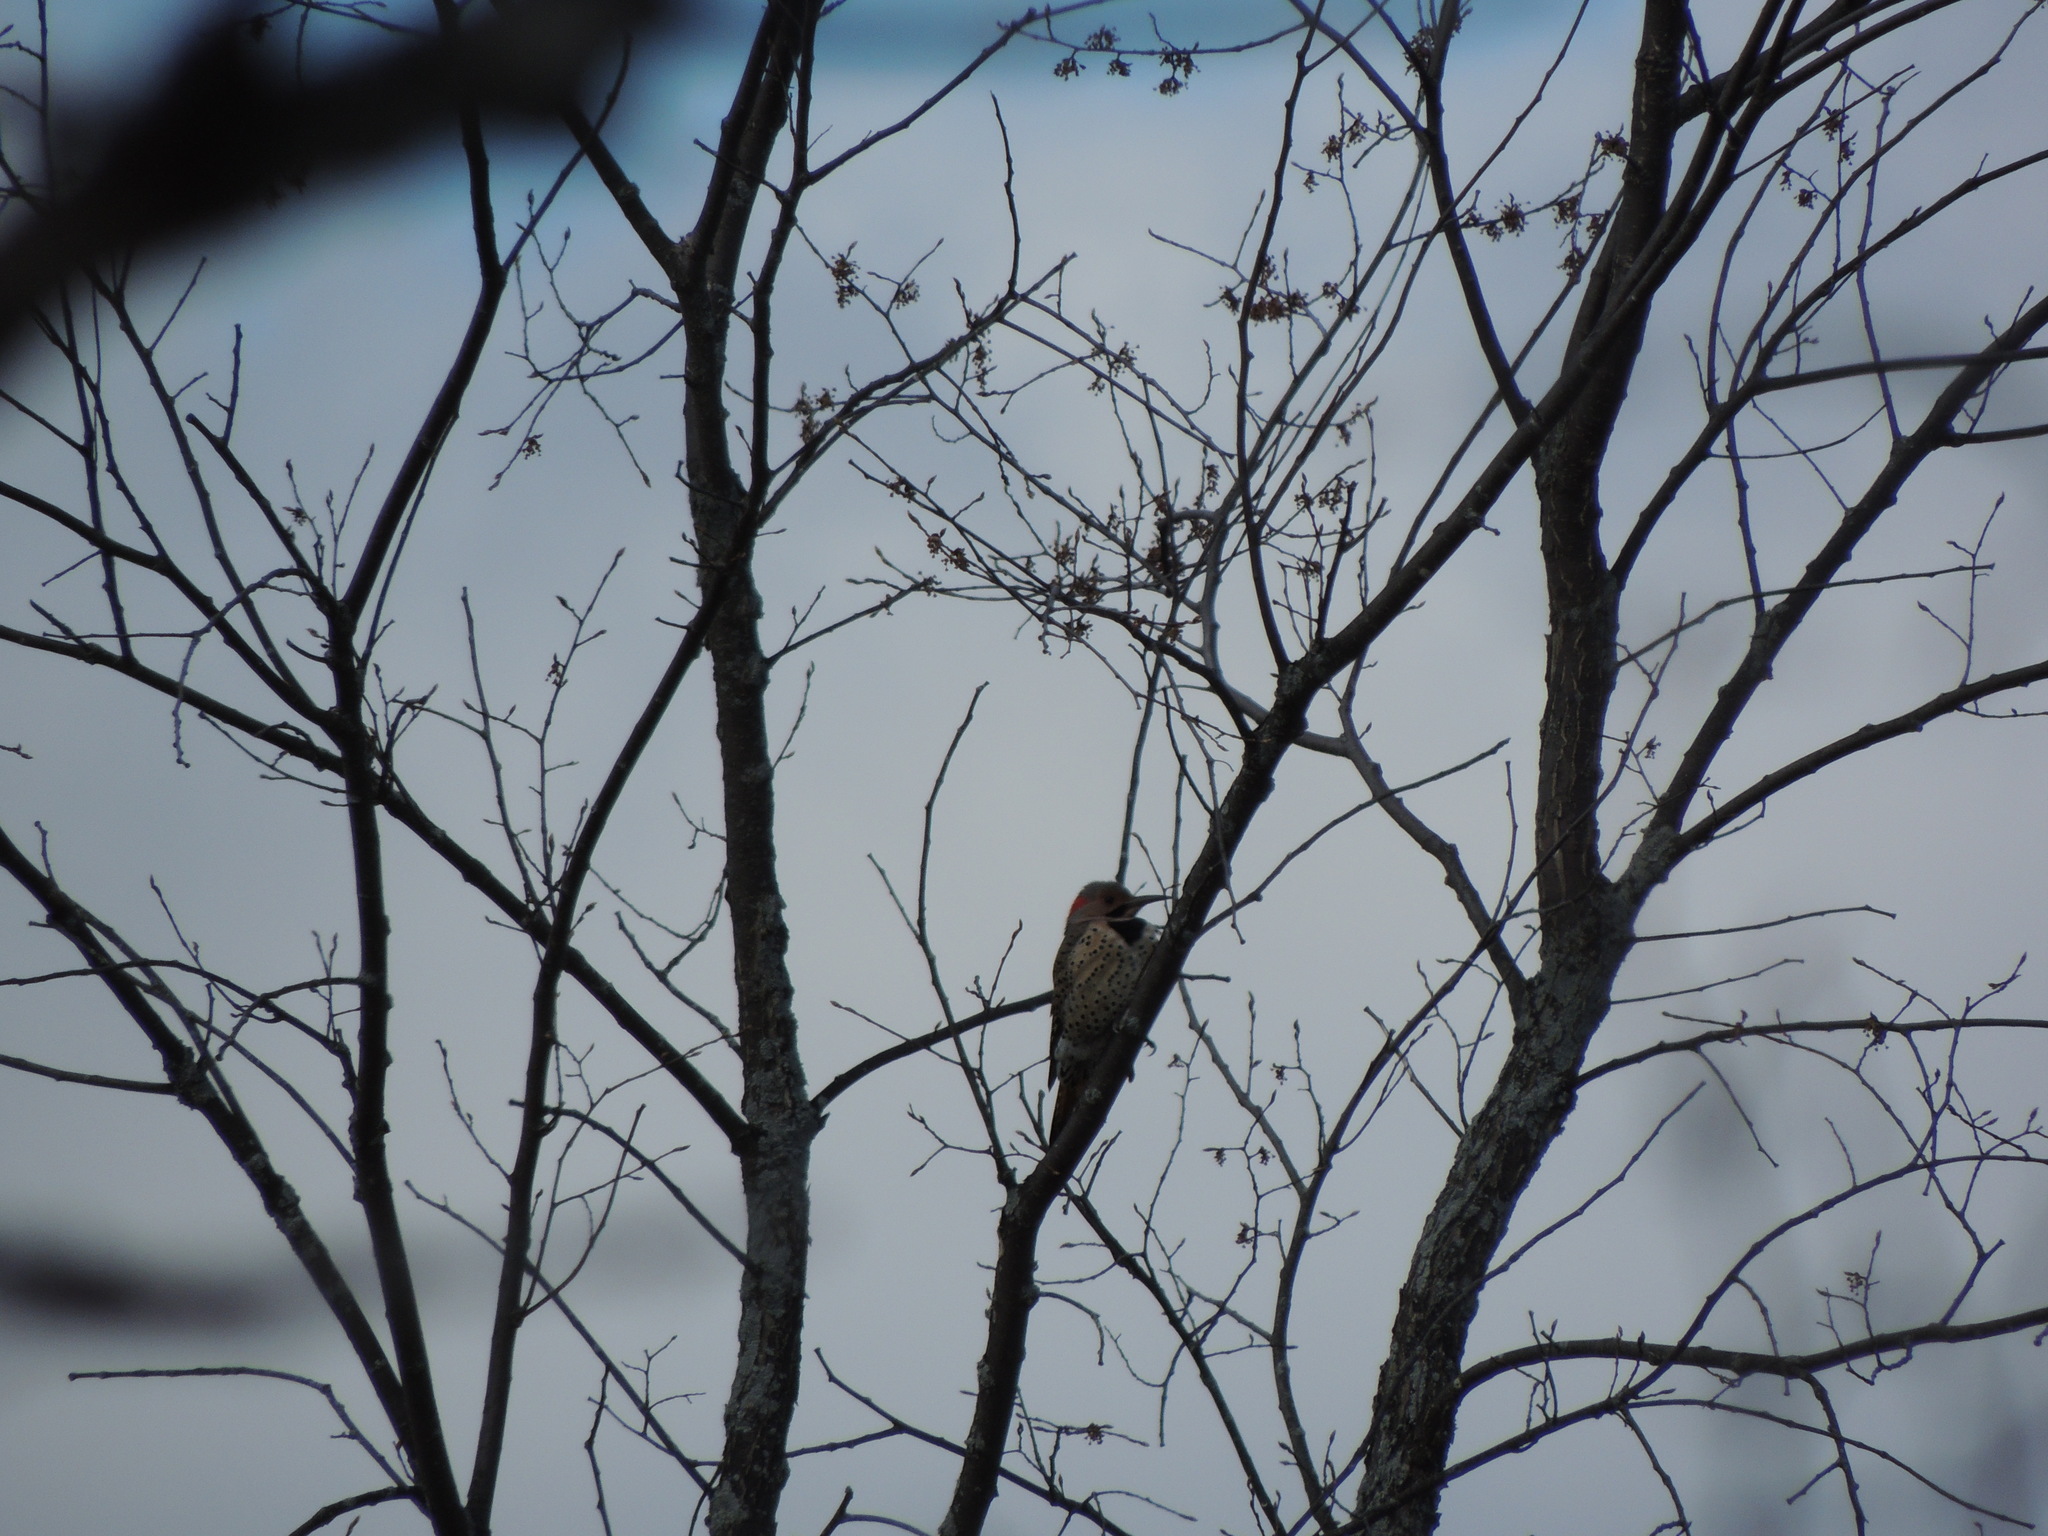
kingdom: Animalia
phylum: Chordata
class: Aves
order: Piciformes
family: Picidae
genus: Colaptes
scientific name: Colaptes auratus
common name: Northern flicker
